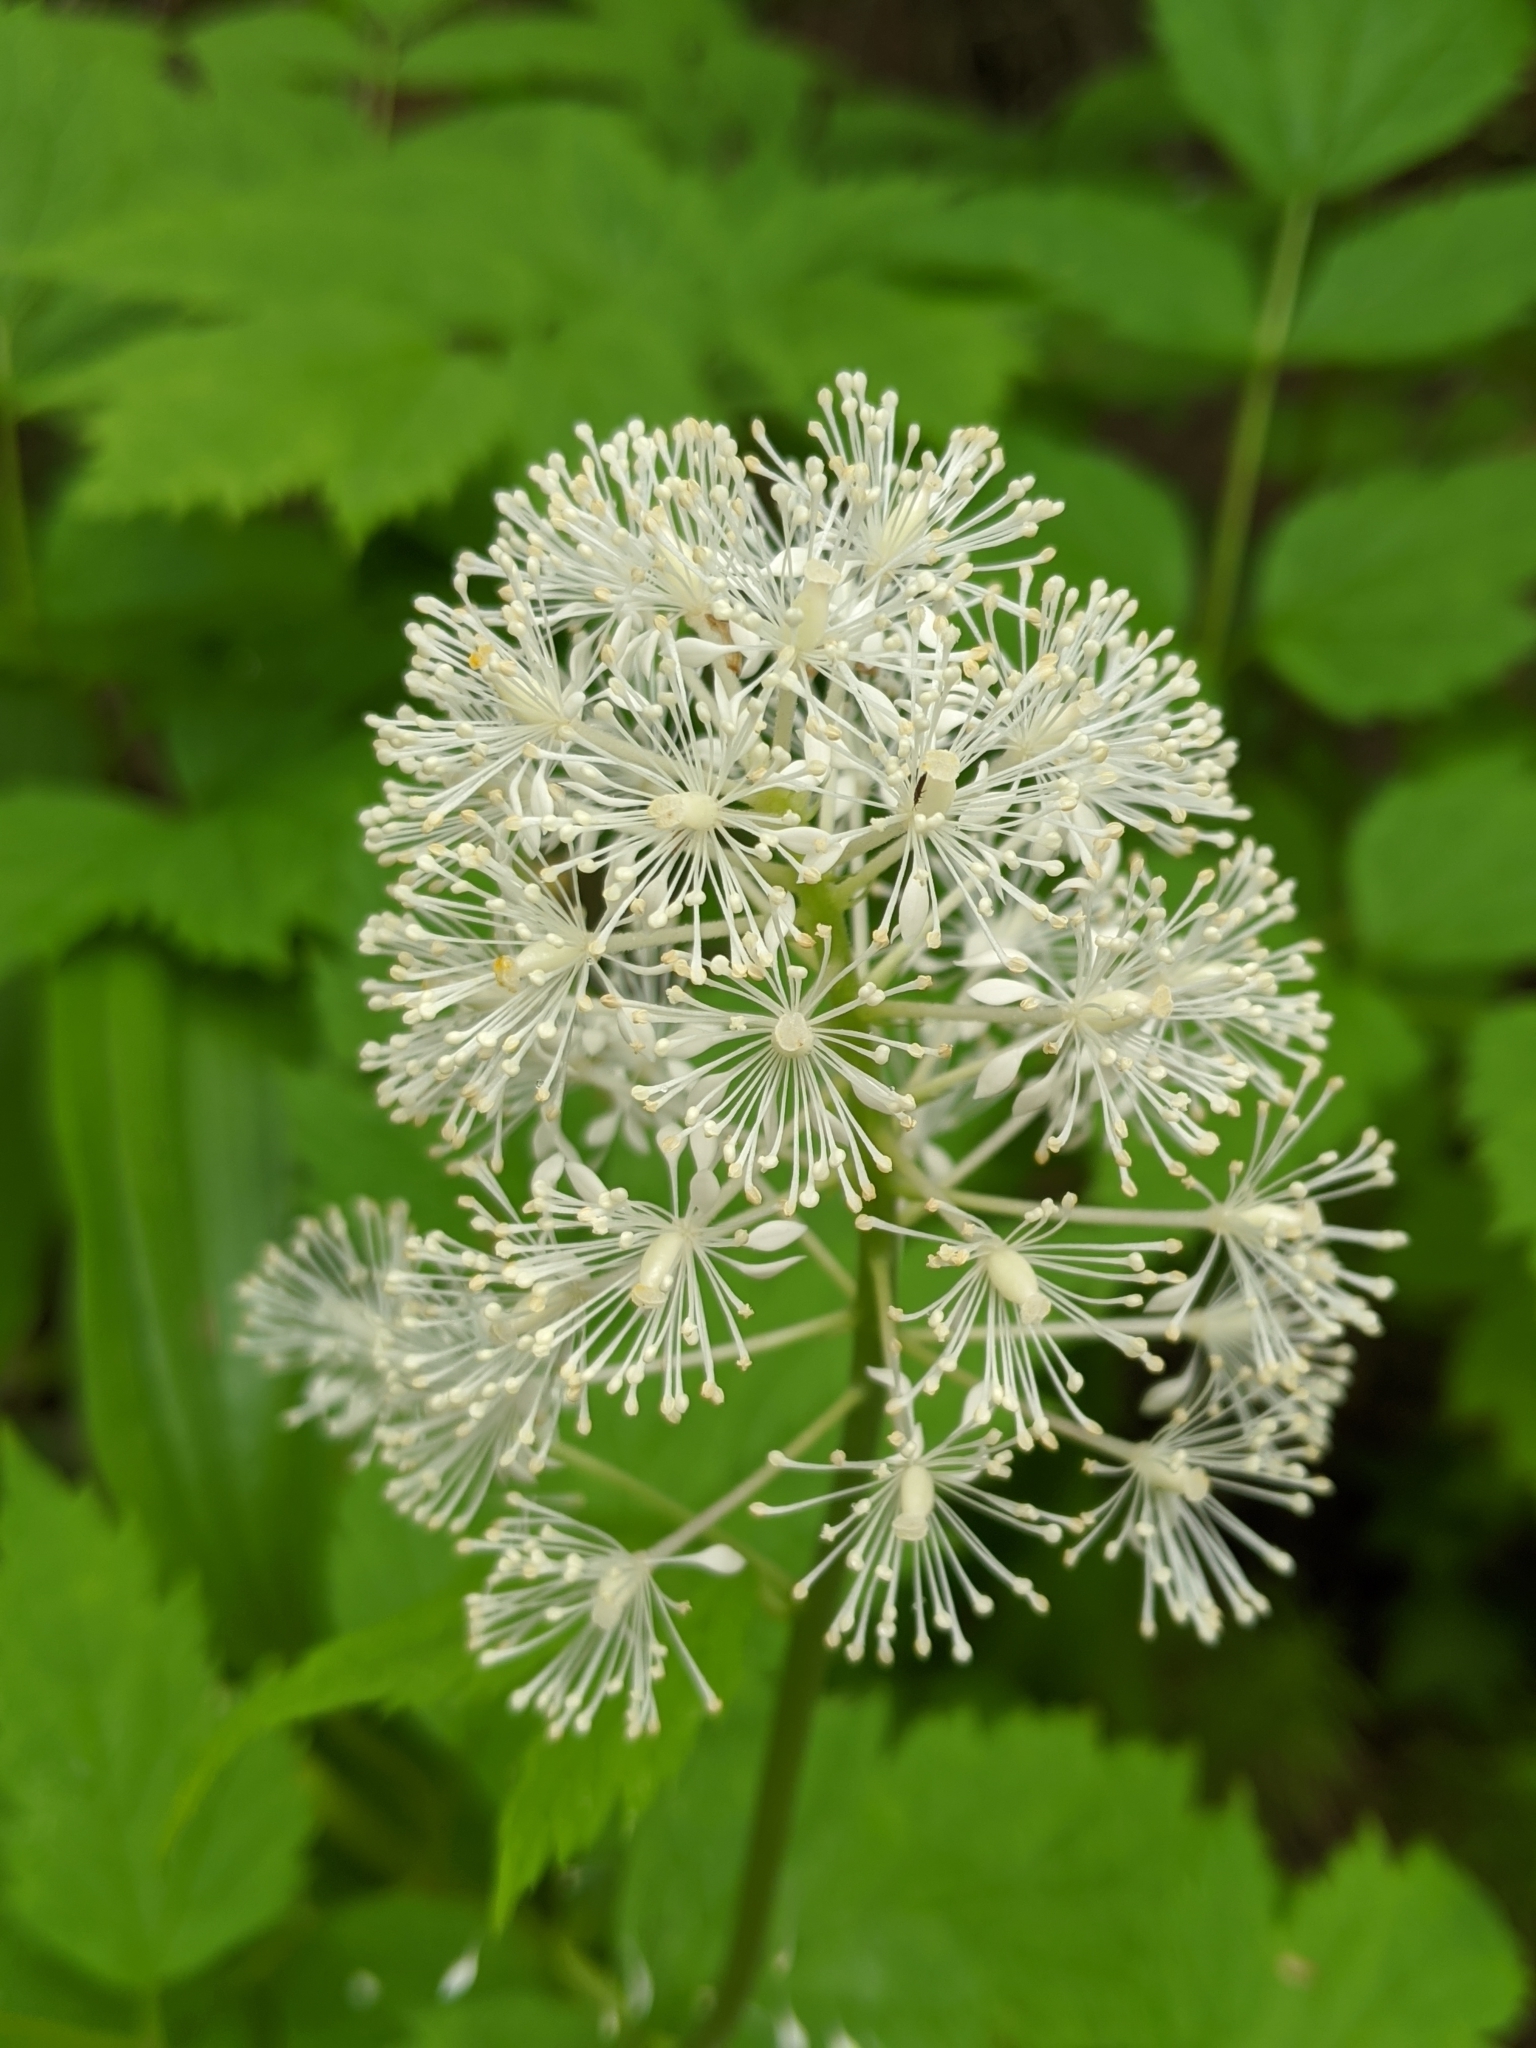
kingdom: Plantae
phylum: Tracheophyta
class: Magnoliopsida
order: Ranunculales
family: Ranunculaceae
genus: Actaea
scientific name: Actaea rubra
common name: Red baneberry
